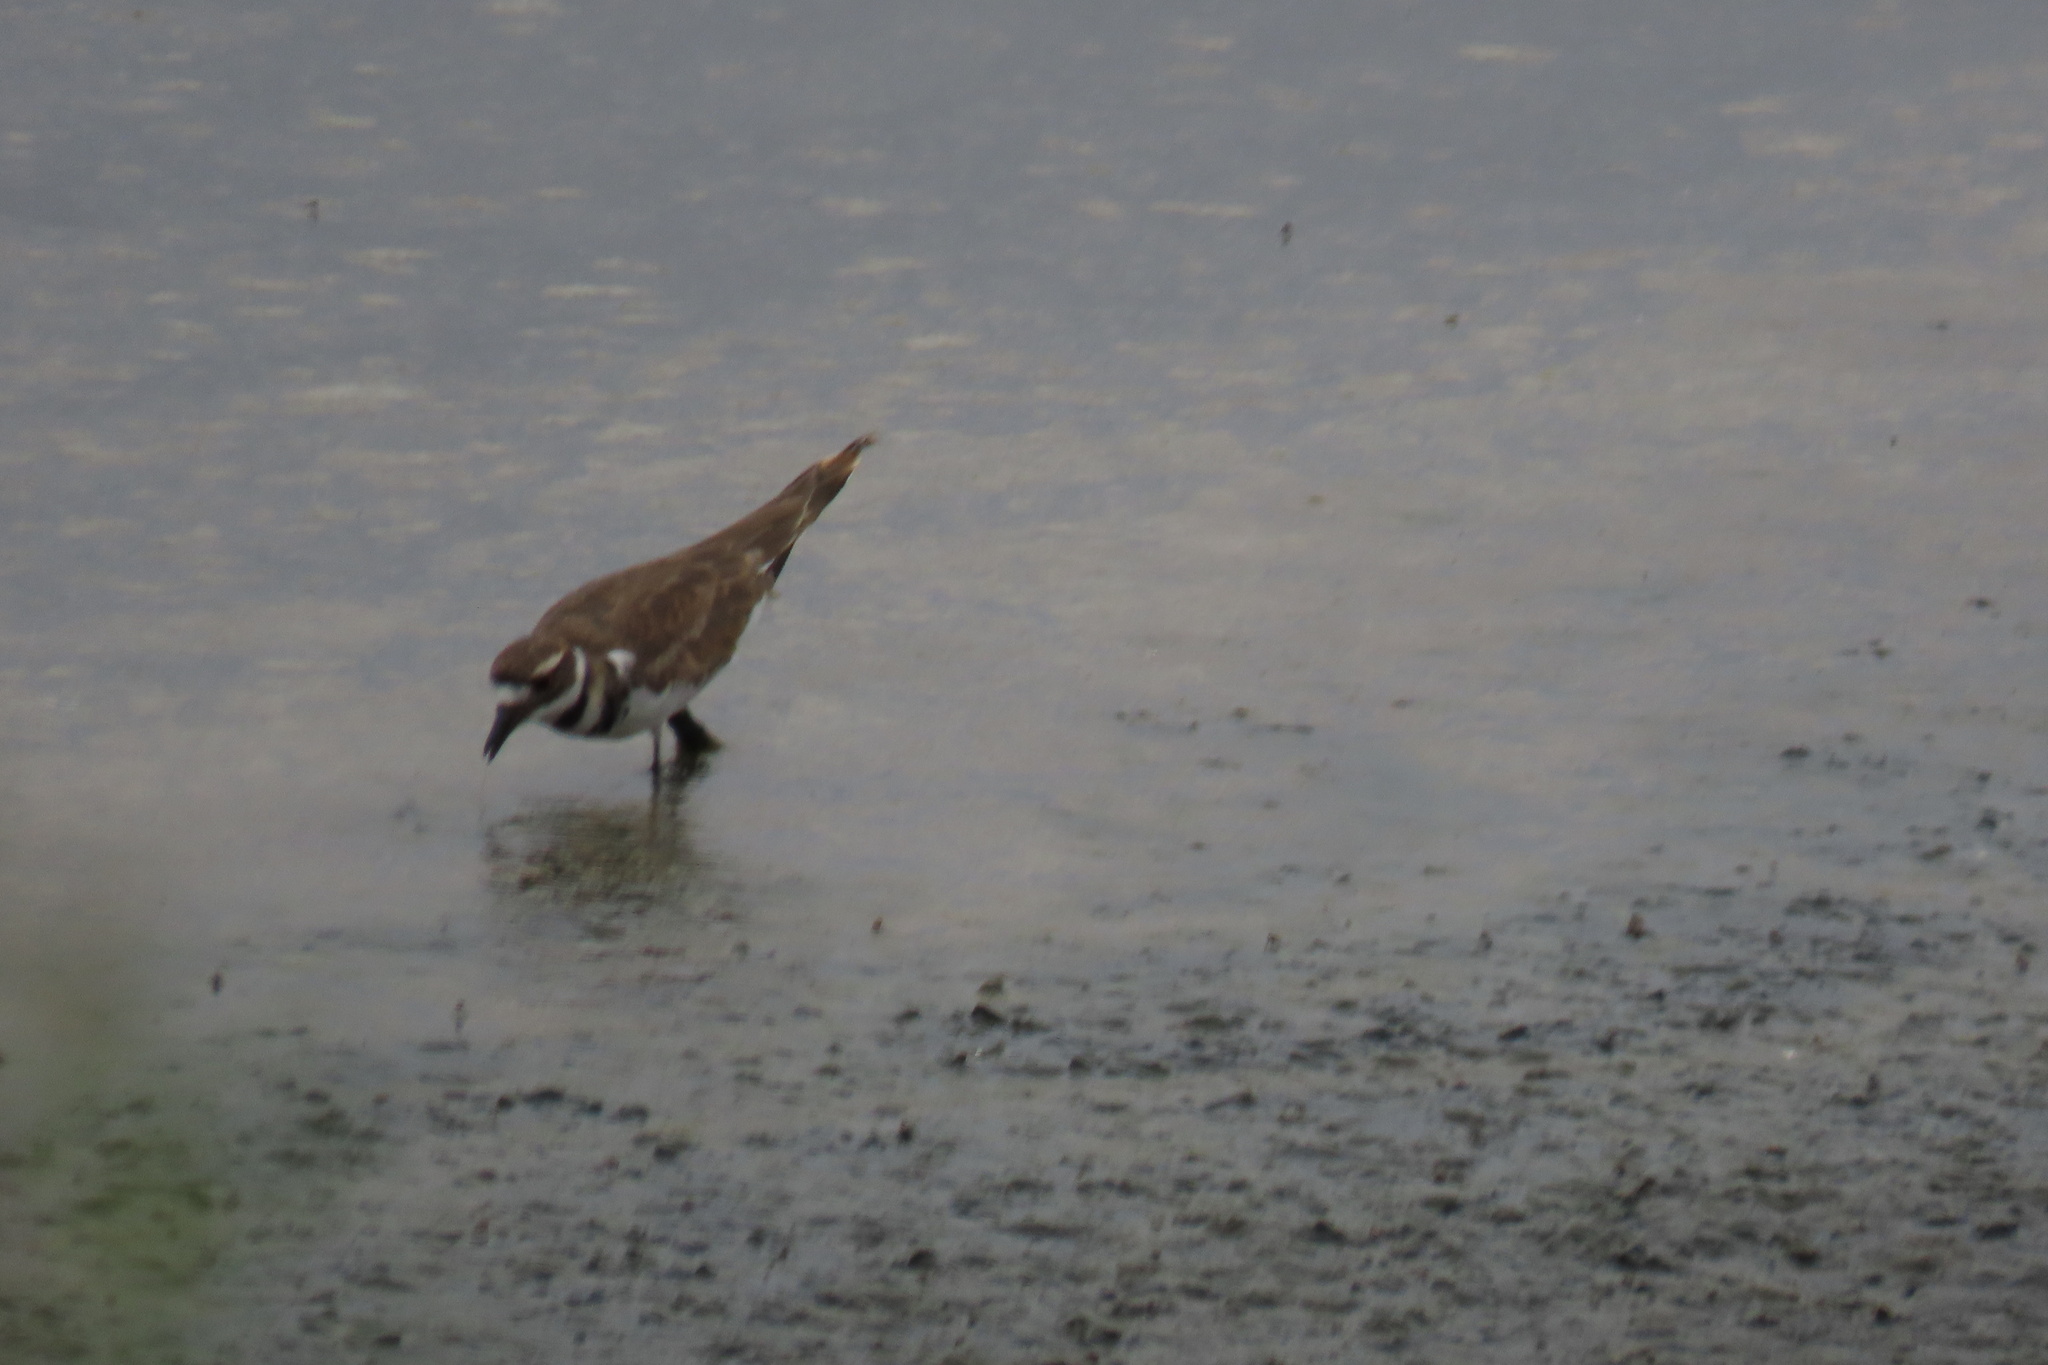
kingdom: Animalia
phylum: Chordata
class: Aves
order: Charadriiformes
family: Charadriidae
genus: Charadrius
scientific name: Charadrius vociferus
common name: Killdeer
